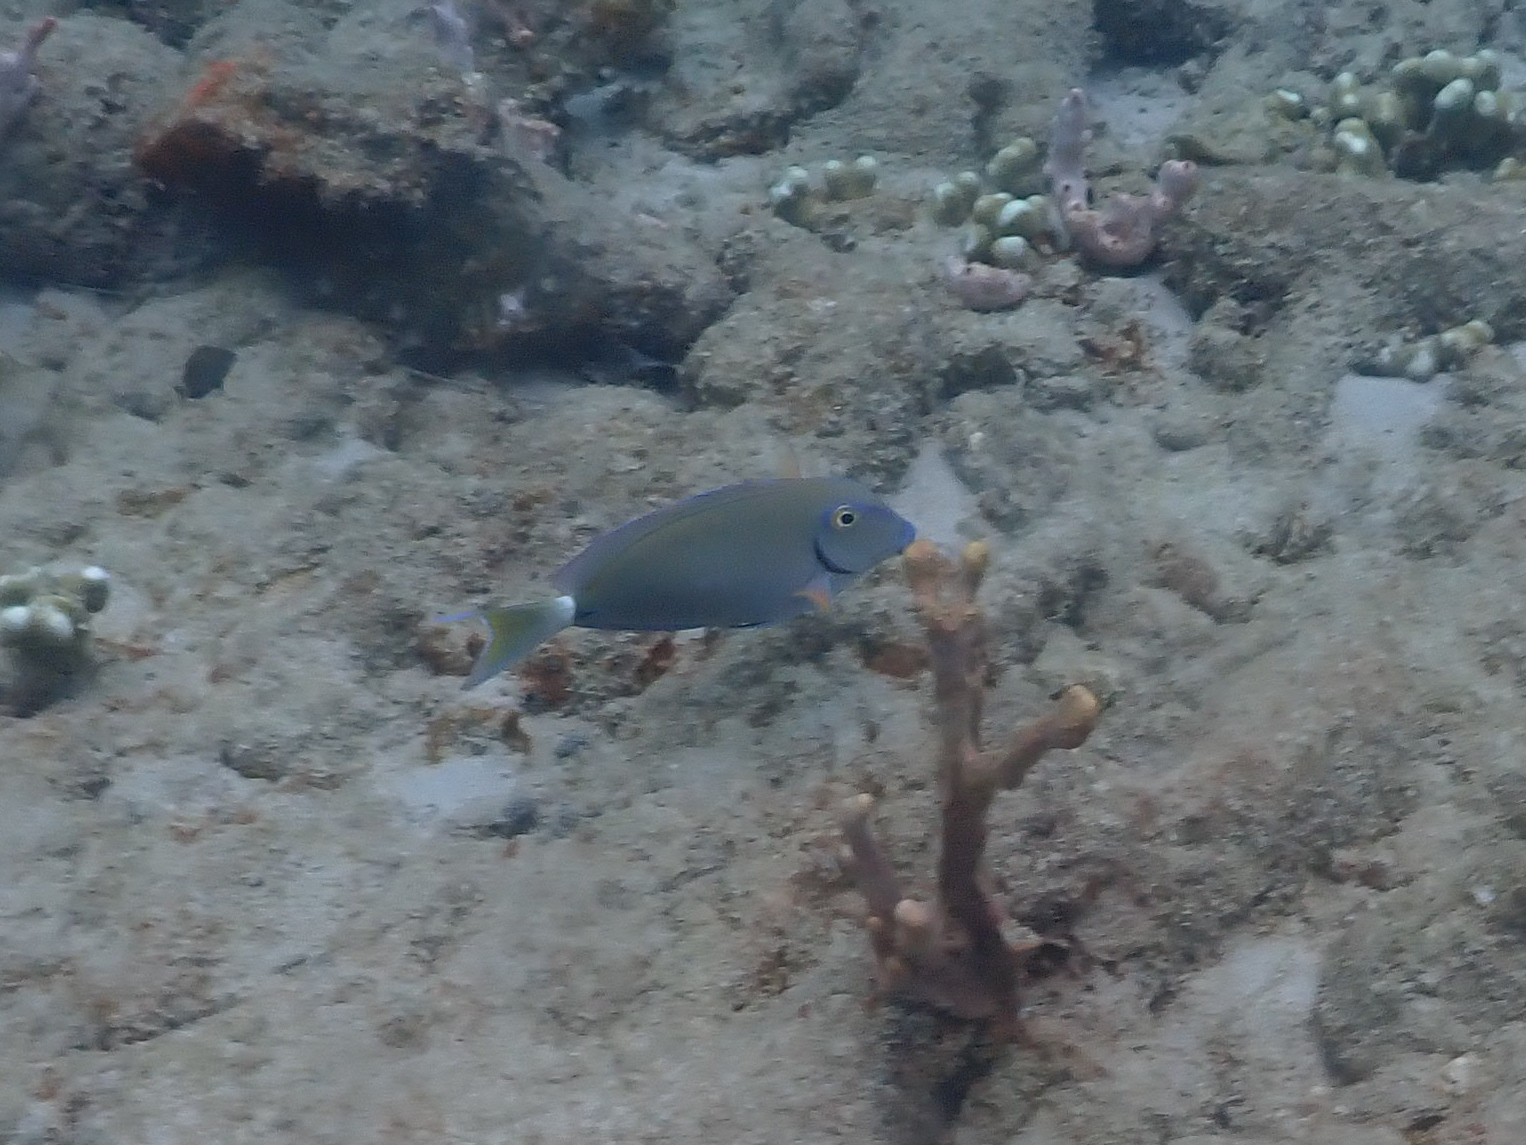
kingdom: Animalia
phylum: Chordata
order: Perciformes
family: Acanthuridae
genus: Acanthurus
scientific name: Acanthurus bahianus
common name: Ocean surgeon
